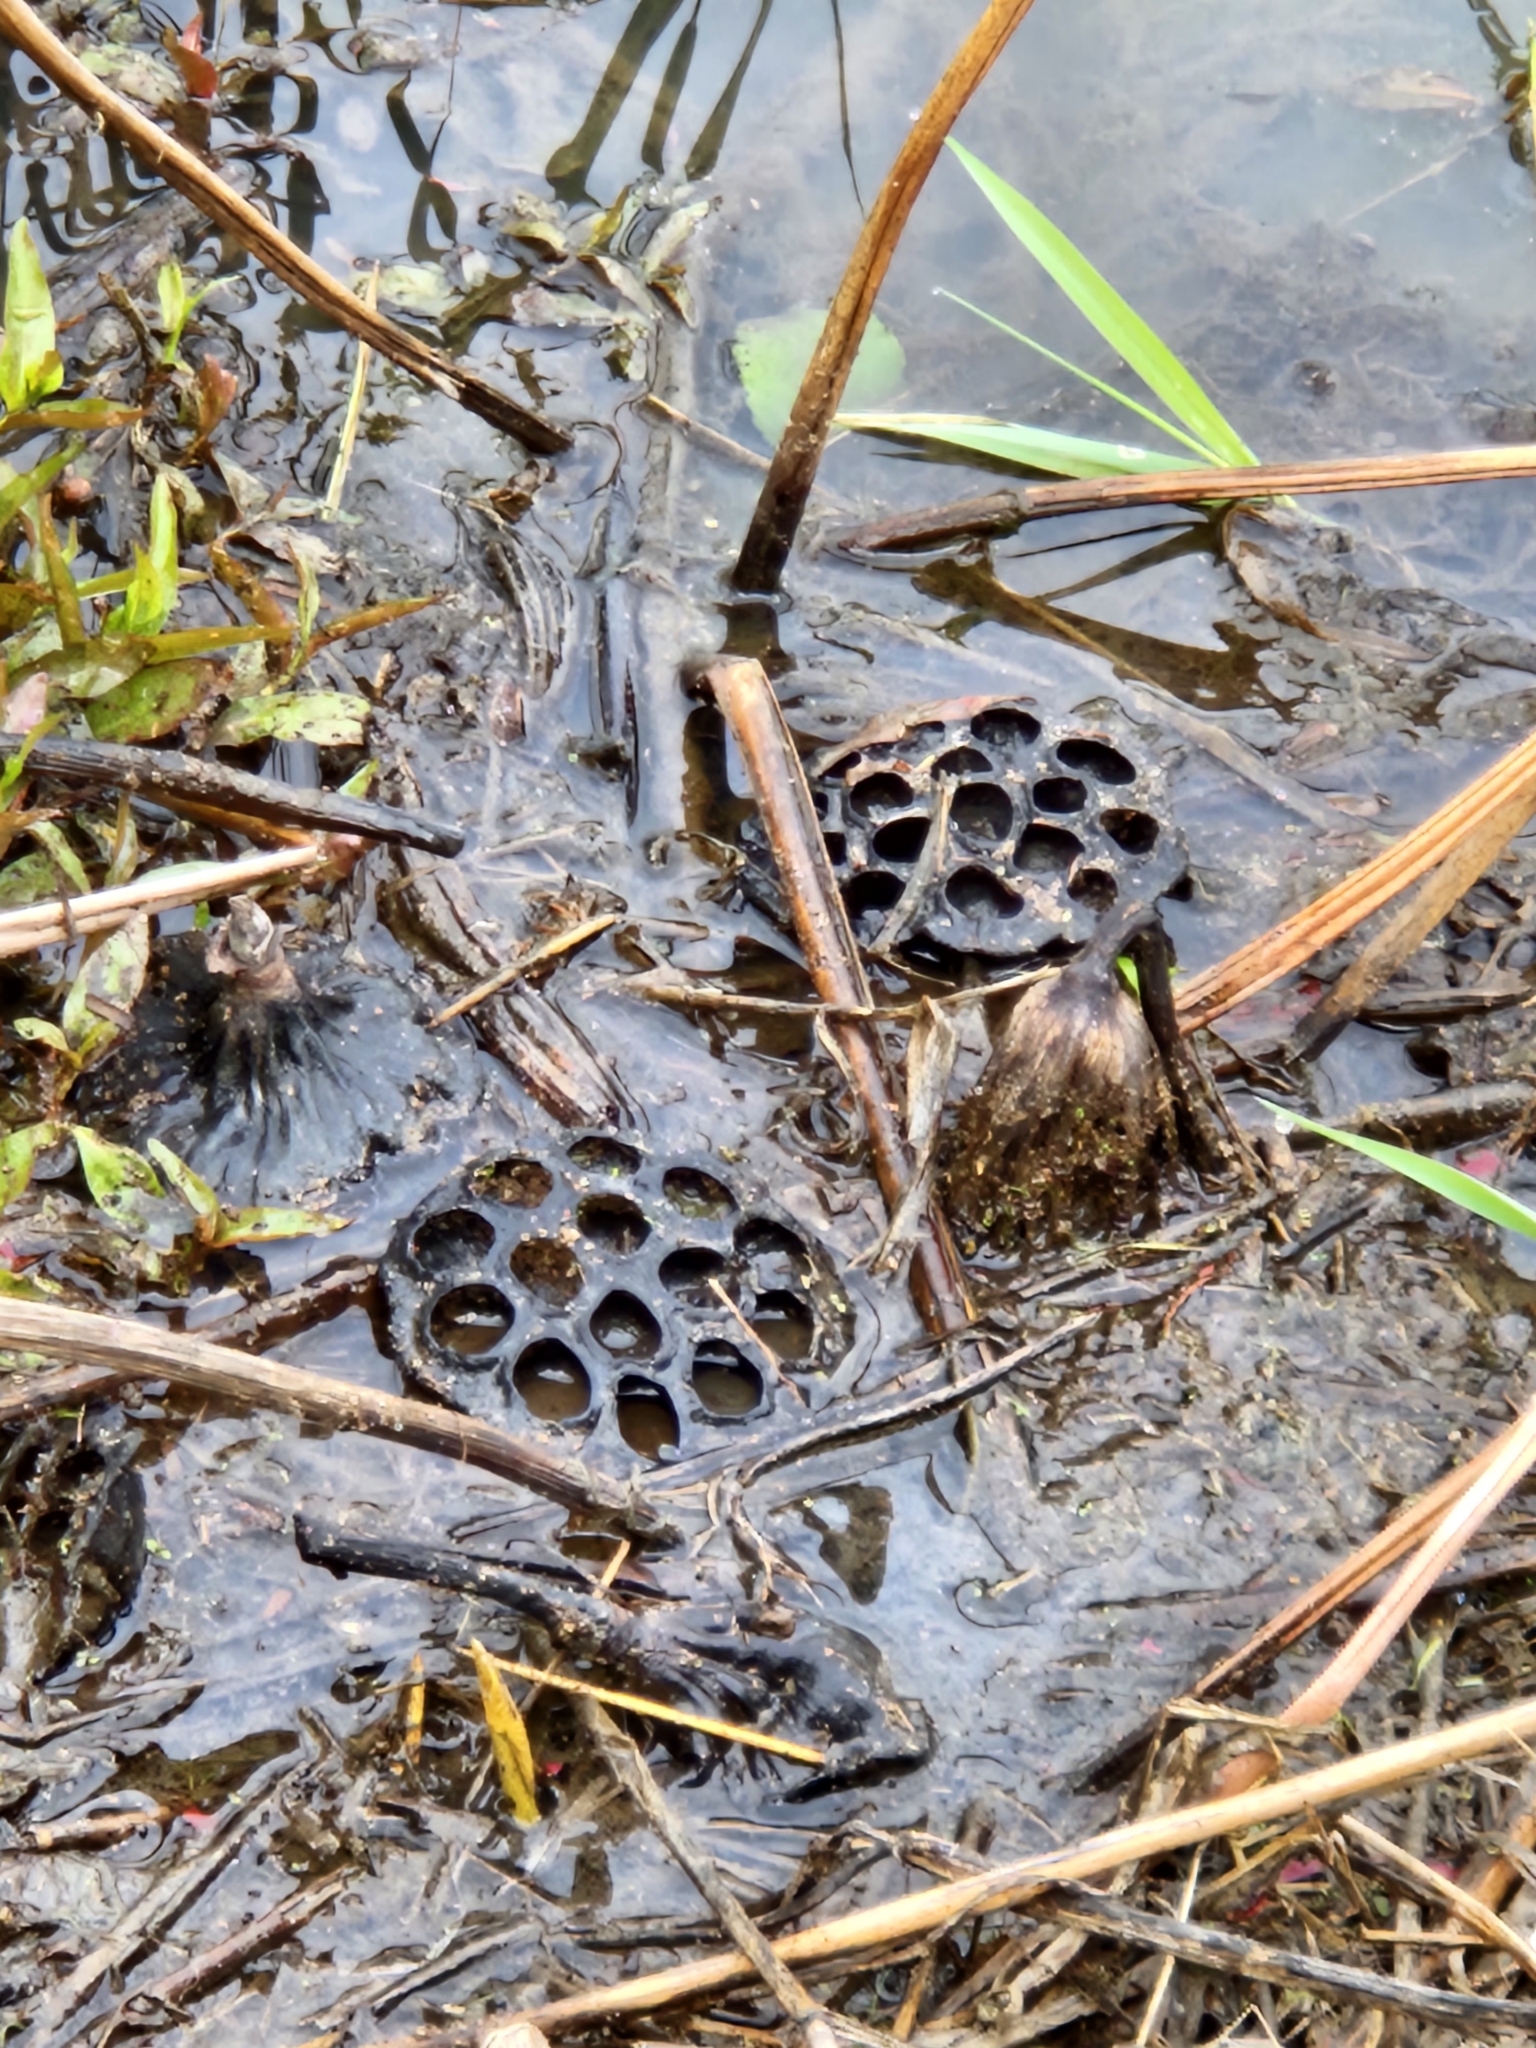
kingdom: Plantae
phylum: Tracheophyta
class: Magnoliopsida
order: Proteales
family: Nelumbonaceae
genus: Nelumbo
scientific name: Nelumbo lutea
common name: American lotus
